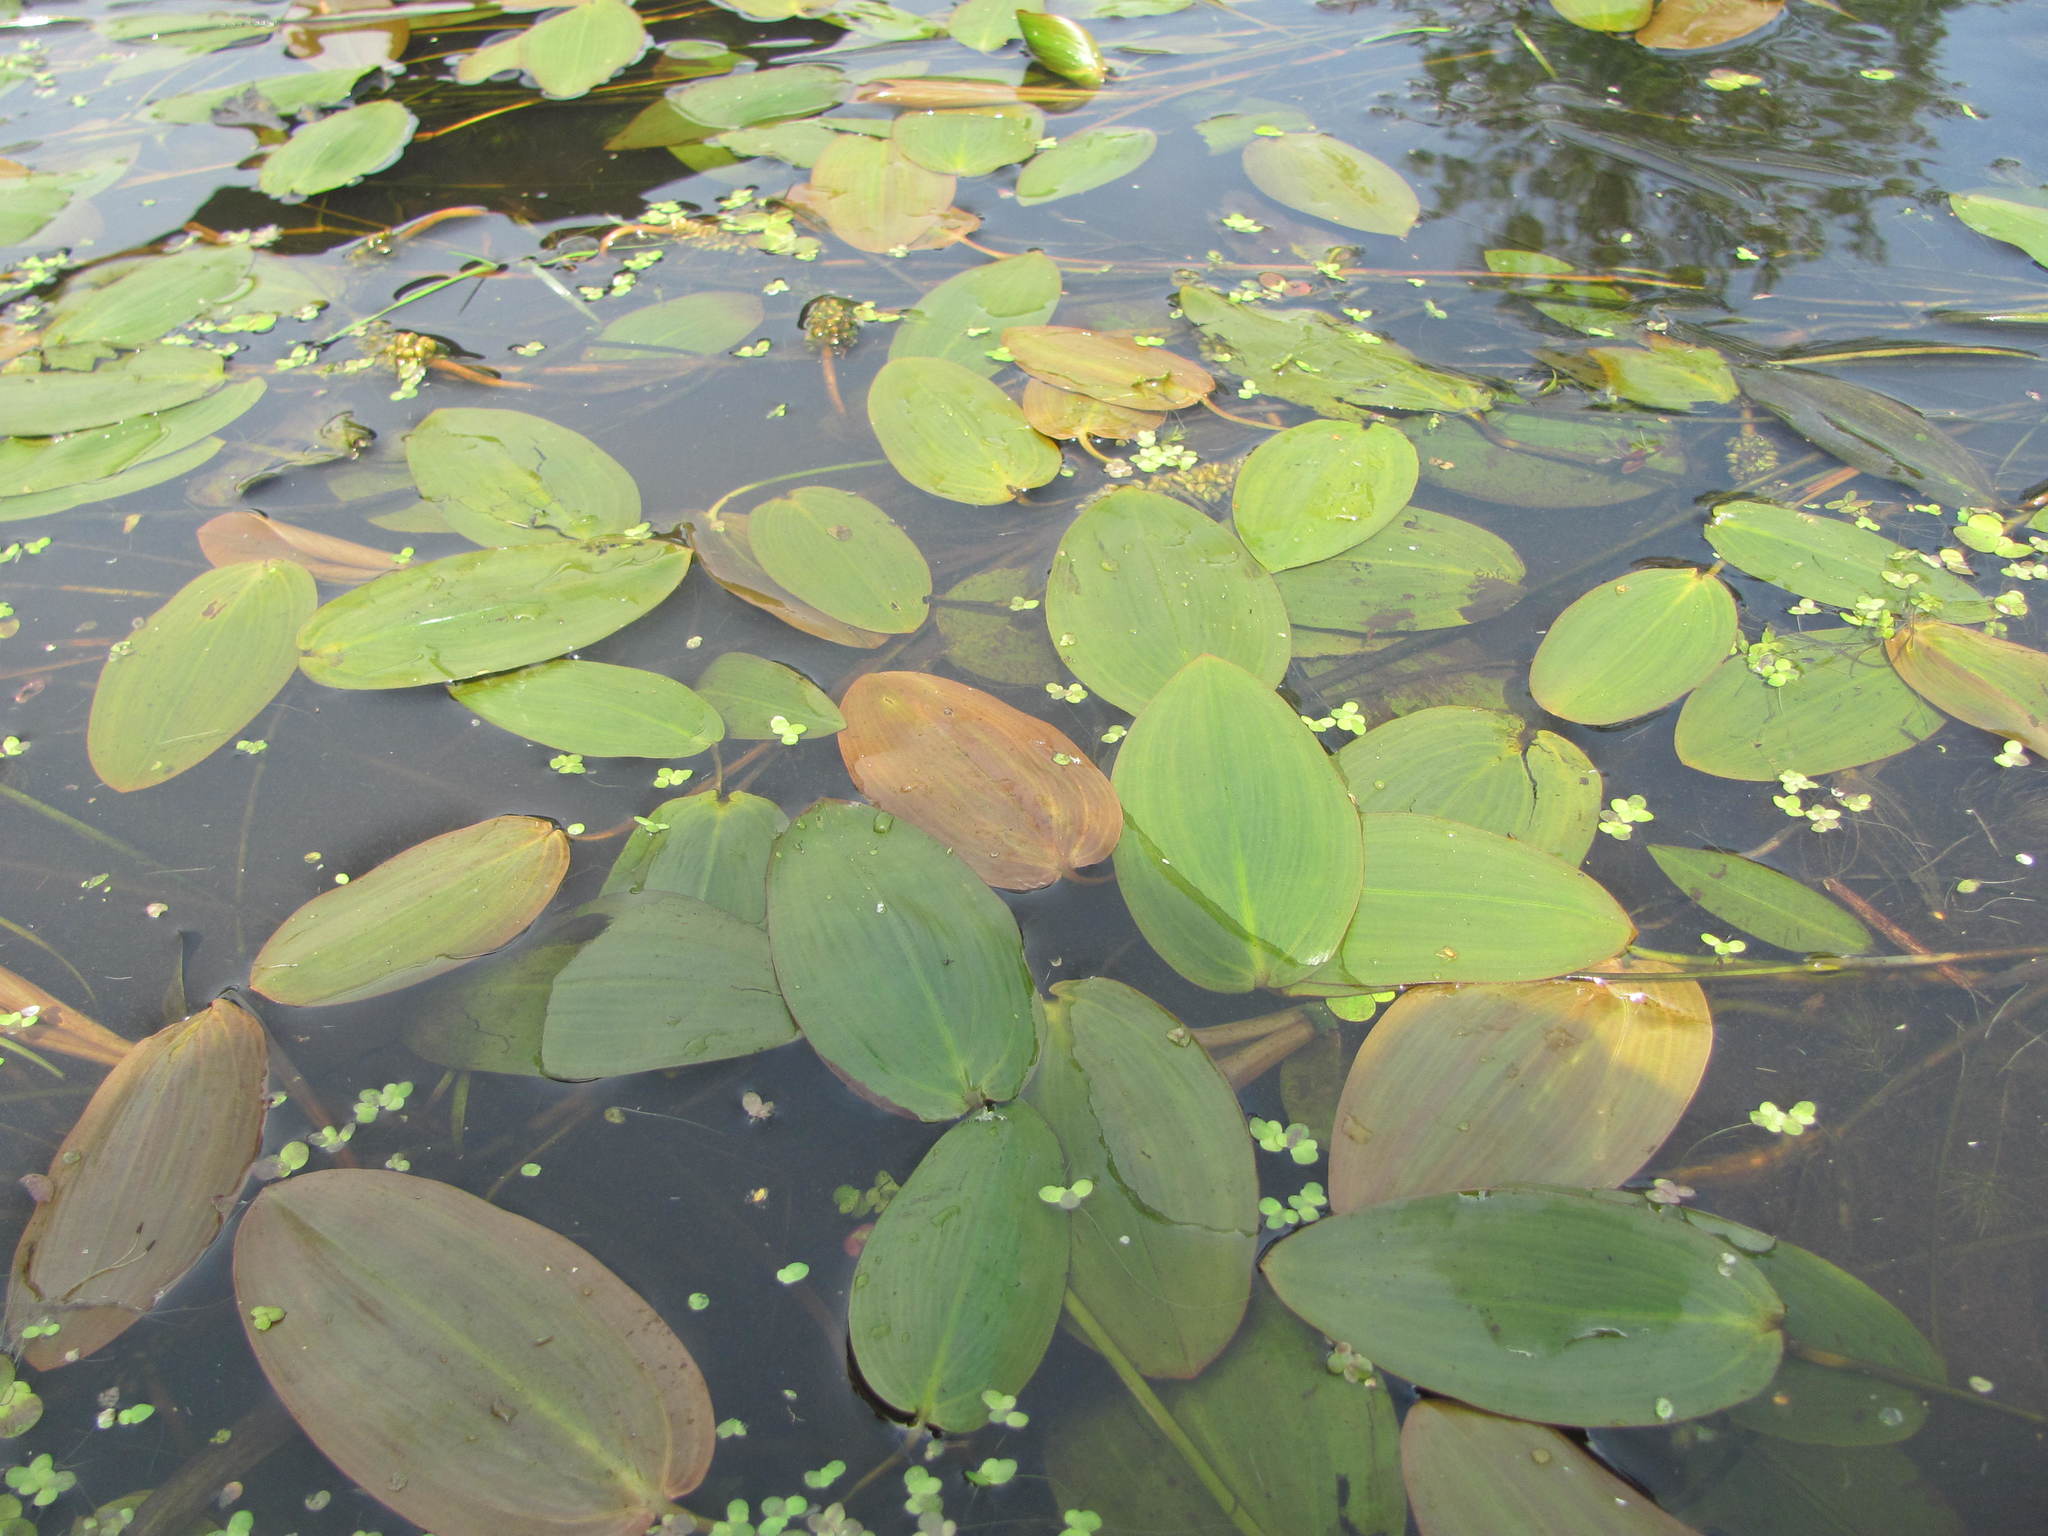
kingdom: Plantae
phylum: Tracheophyta
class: Liliopsida
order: Alismatales
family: Potamogetonaceae
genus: Potamogeton
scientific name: Potamogeton natans
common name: Broad-leaved pondweed
